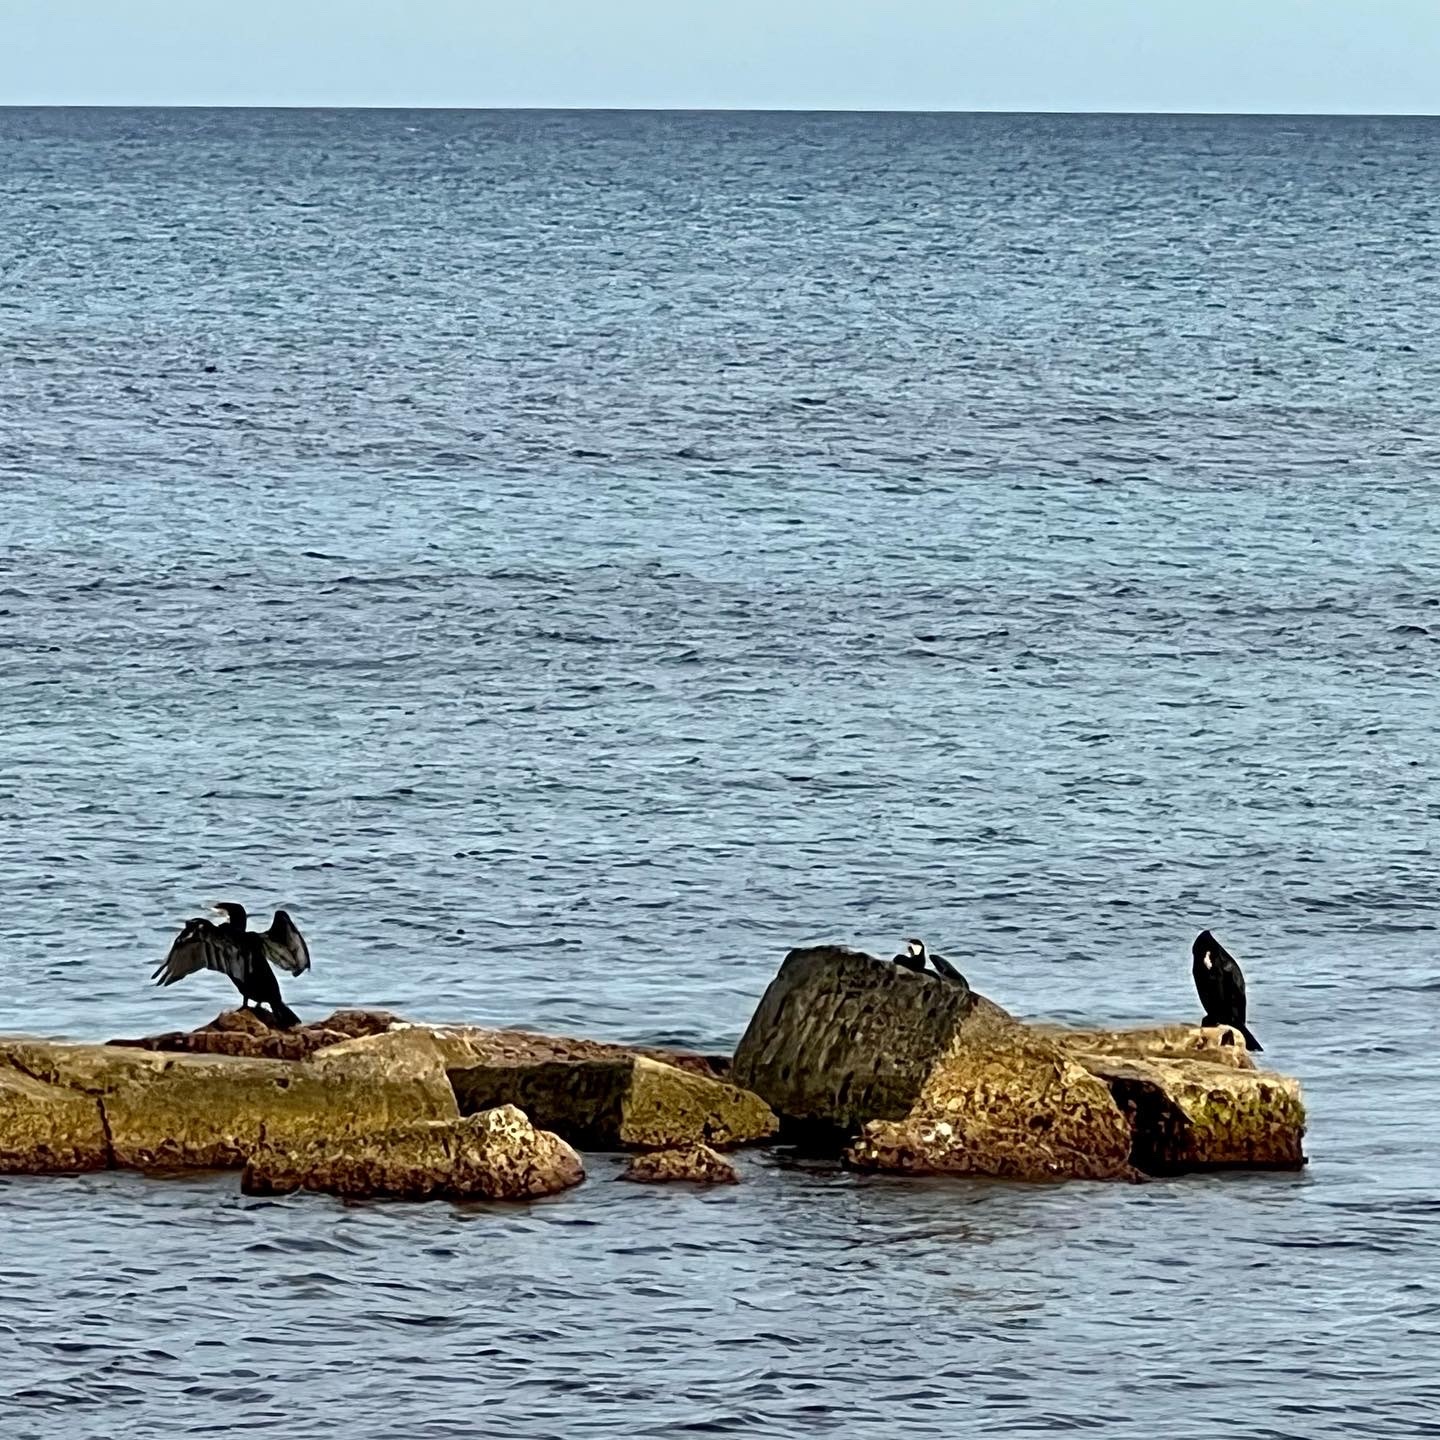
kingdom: Animalia
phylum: Chordata
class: Aves
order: Suliformes
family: Phalacrocoracidae
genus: Phalacrocorax
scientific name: Phalacrocorax carbo
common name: Great cormorant
